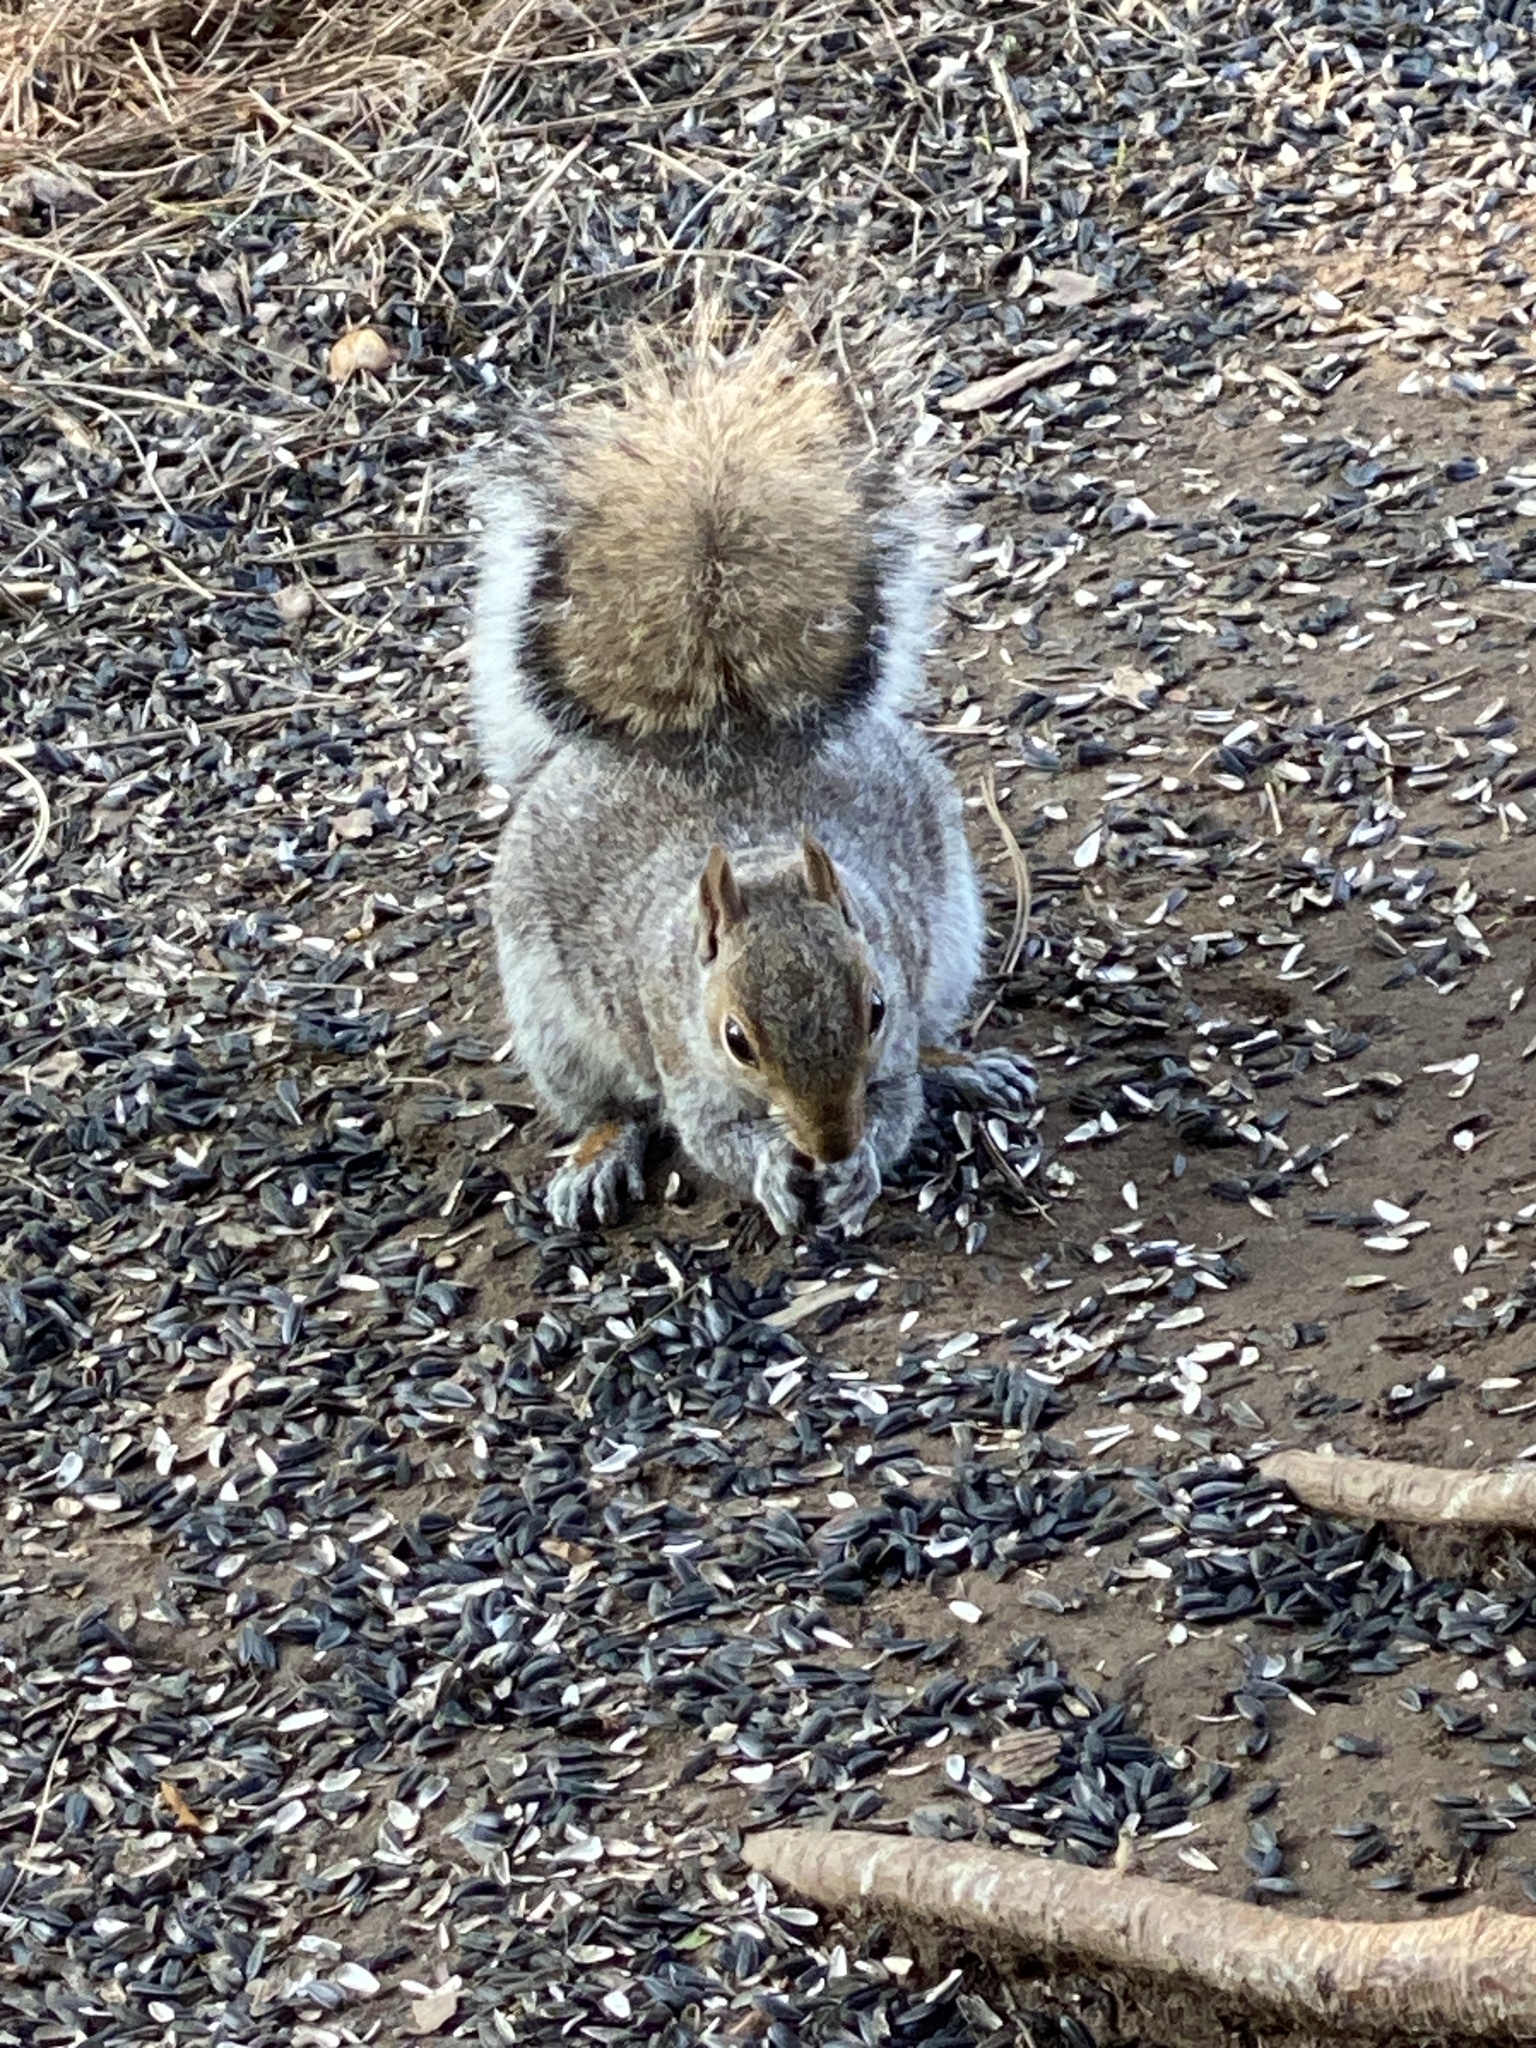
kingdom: Animalia
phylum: Chordata
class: Mammalia
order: Rodentia
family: Sciuridae
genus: Sciurus
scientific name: Sciurus carolinensis
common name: Eastern gray squirrel
